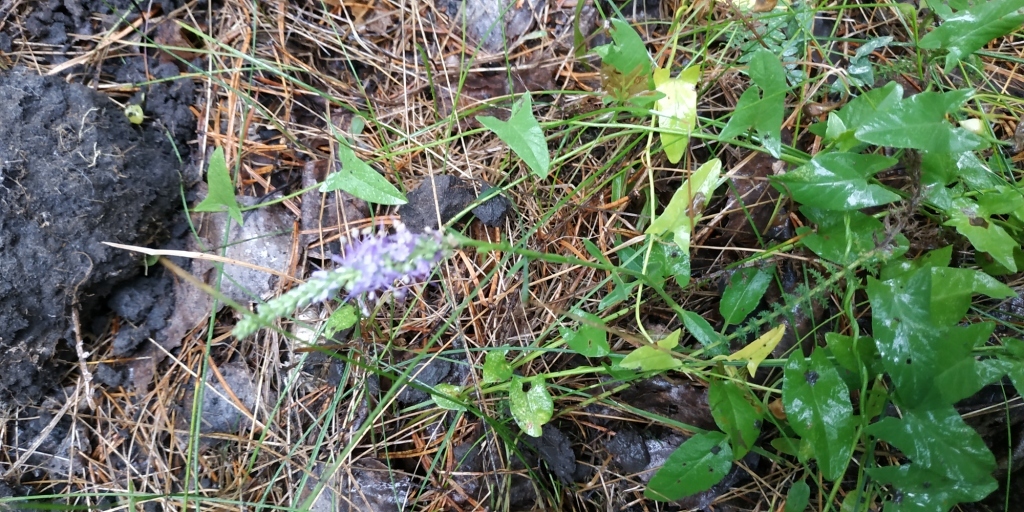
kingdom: Plantae
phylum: Tracheophyta
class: Magnoliopsida
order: Lamiales
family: Plantaginaceae
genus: Veronica
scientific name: Veronica spicata
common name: Spiked speedwell
